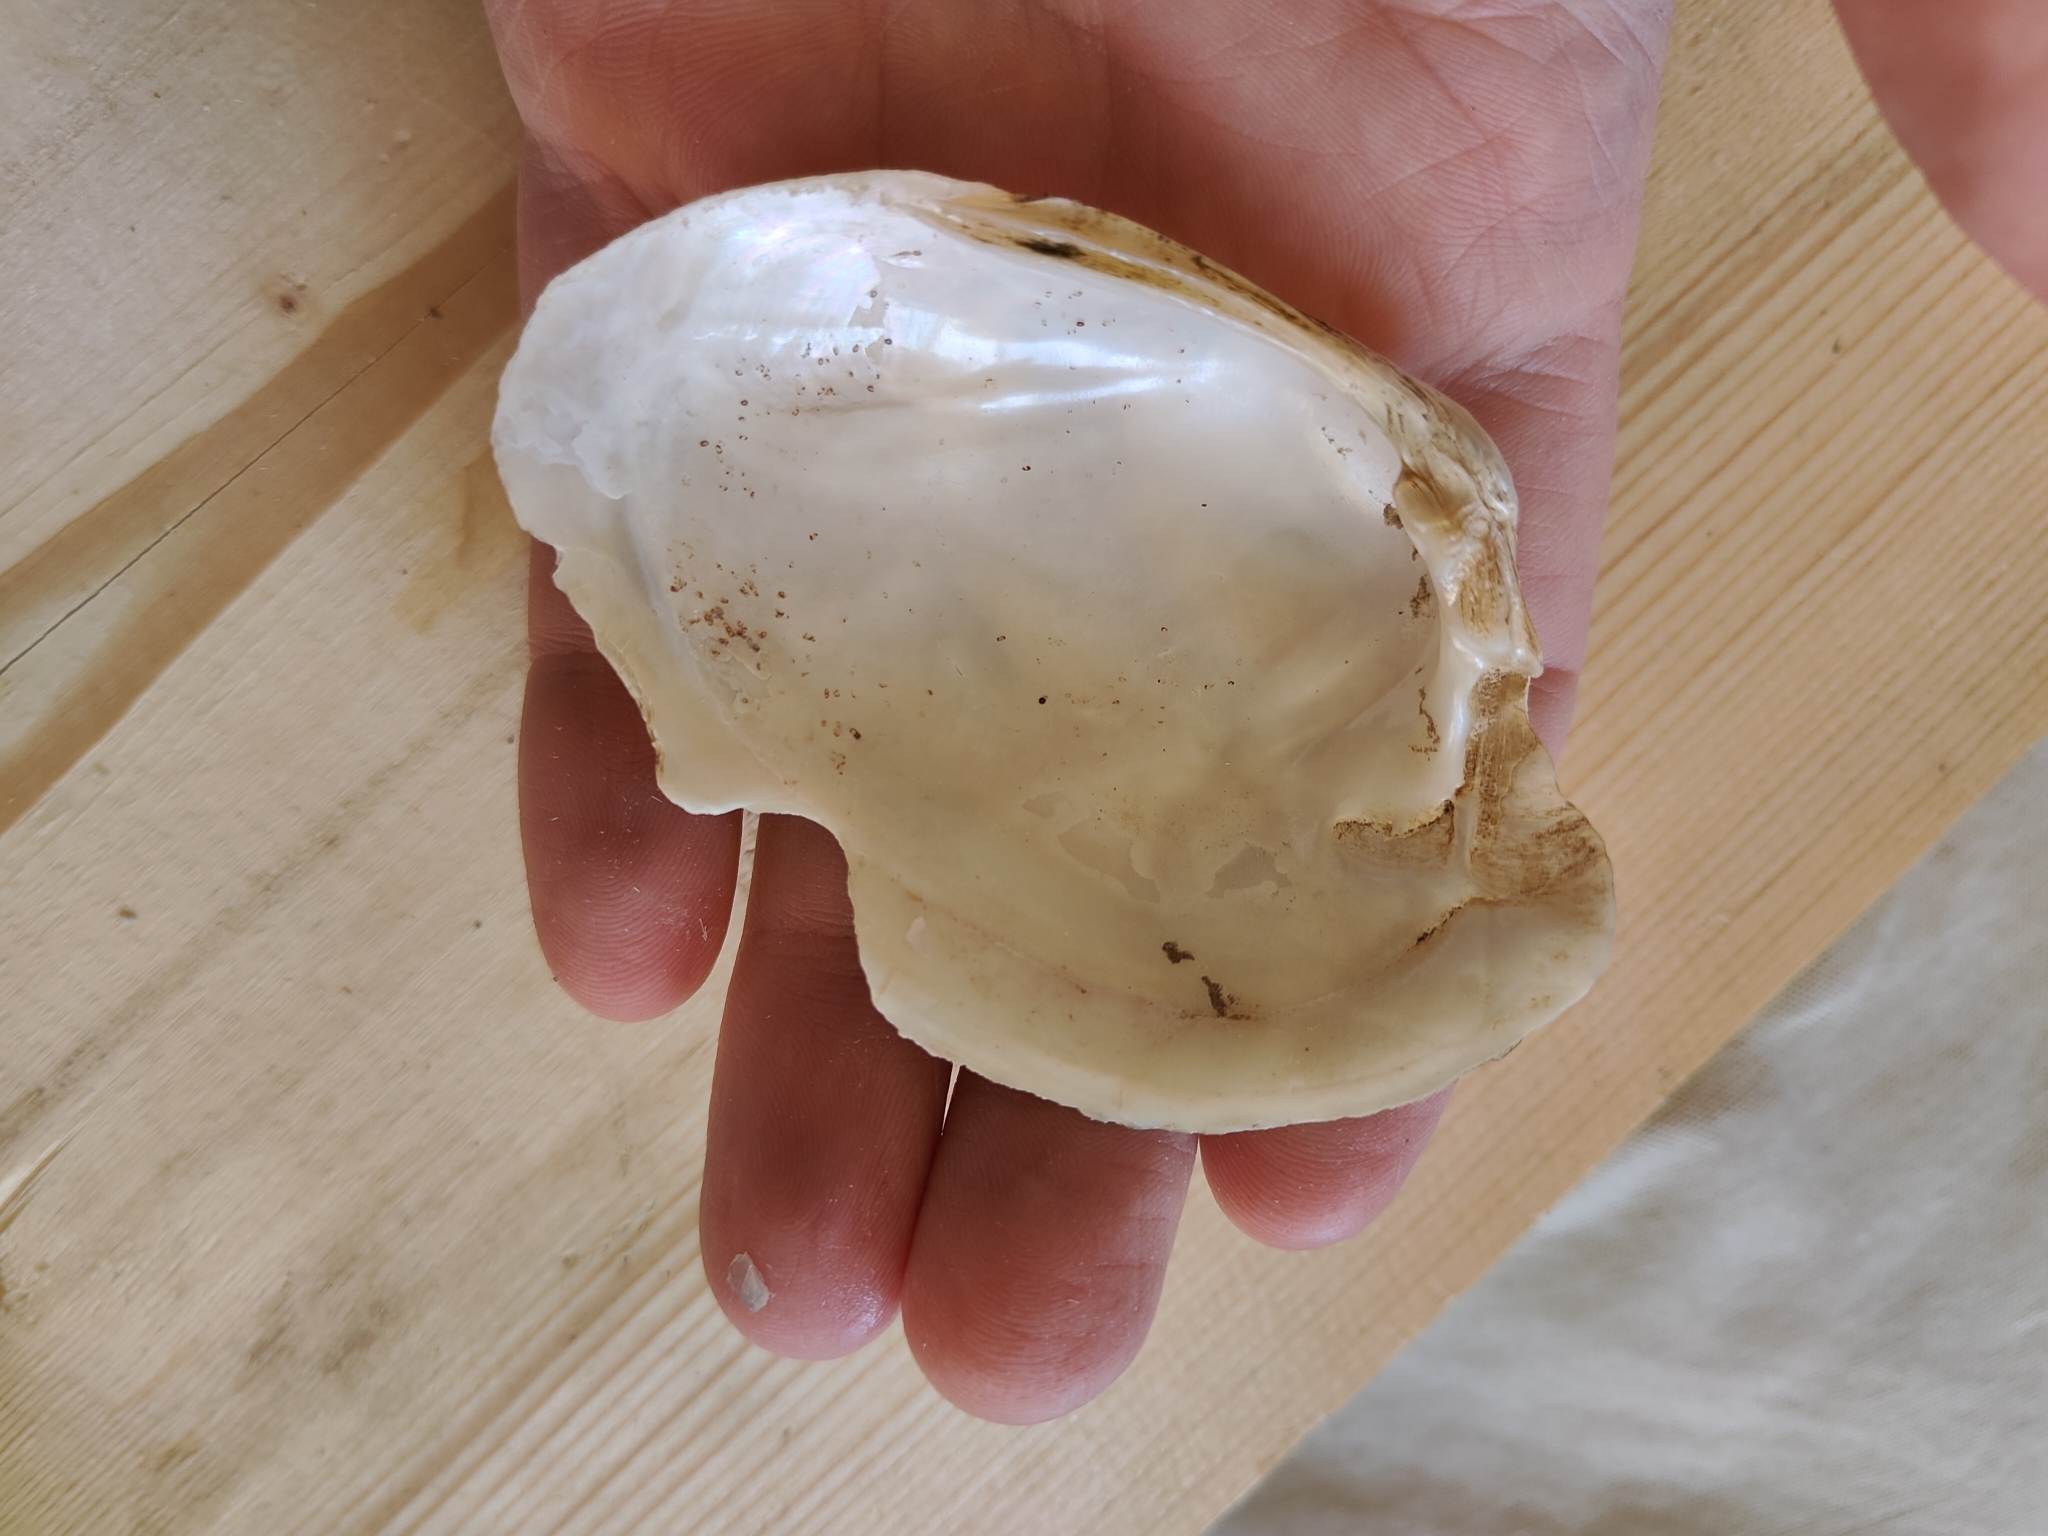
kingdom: Animalia
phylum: Mollusca
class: Bivalvia
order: Unionida
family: Unionidae
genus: Lampsilis
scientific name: Lampsilis cardium
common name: Plain pocketbook
